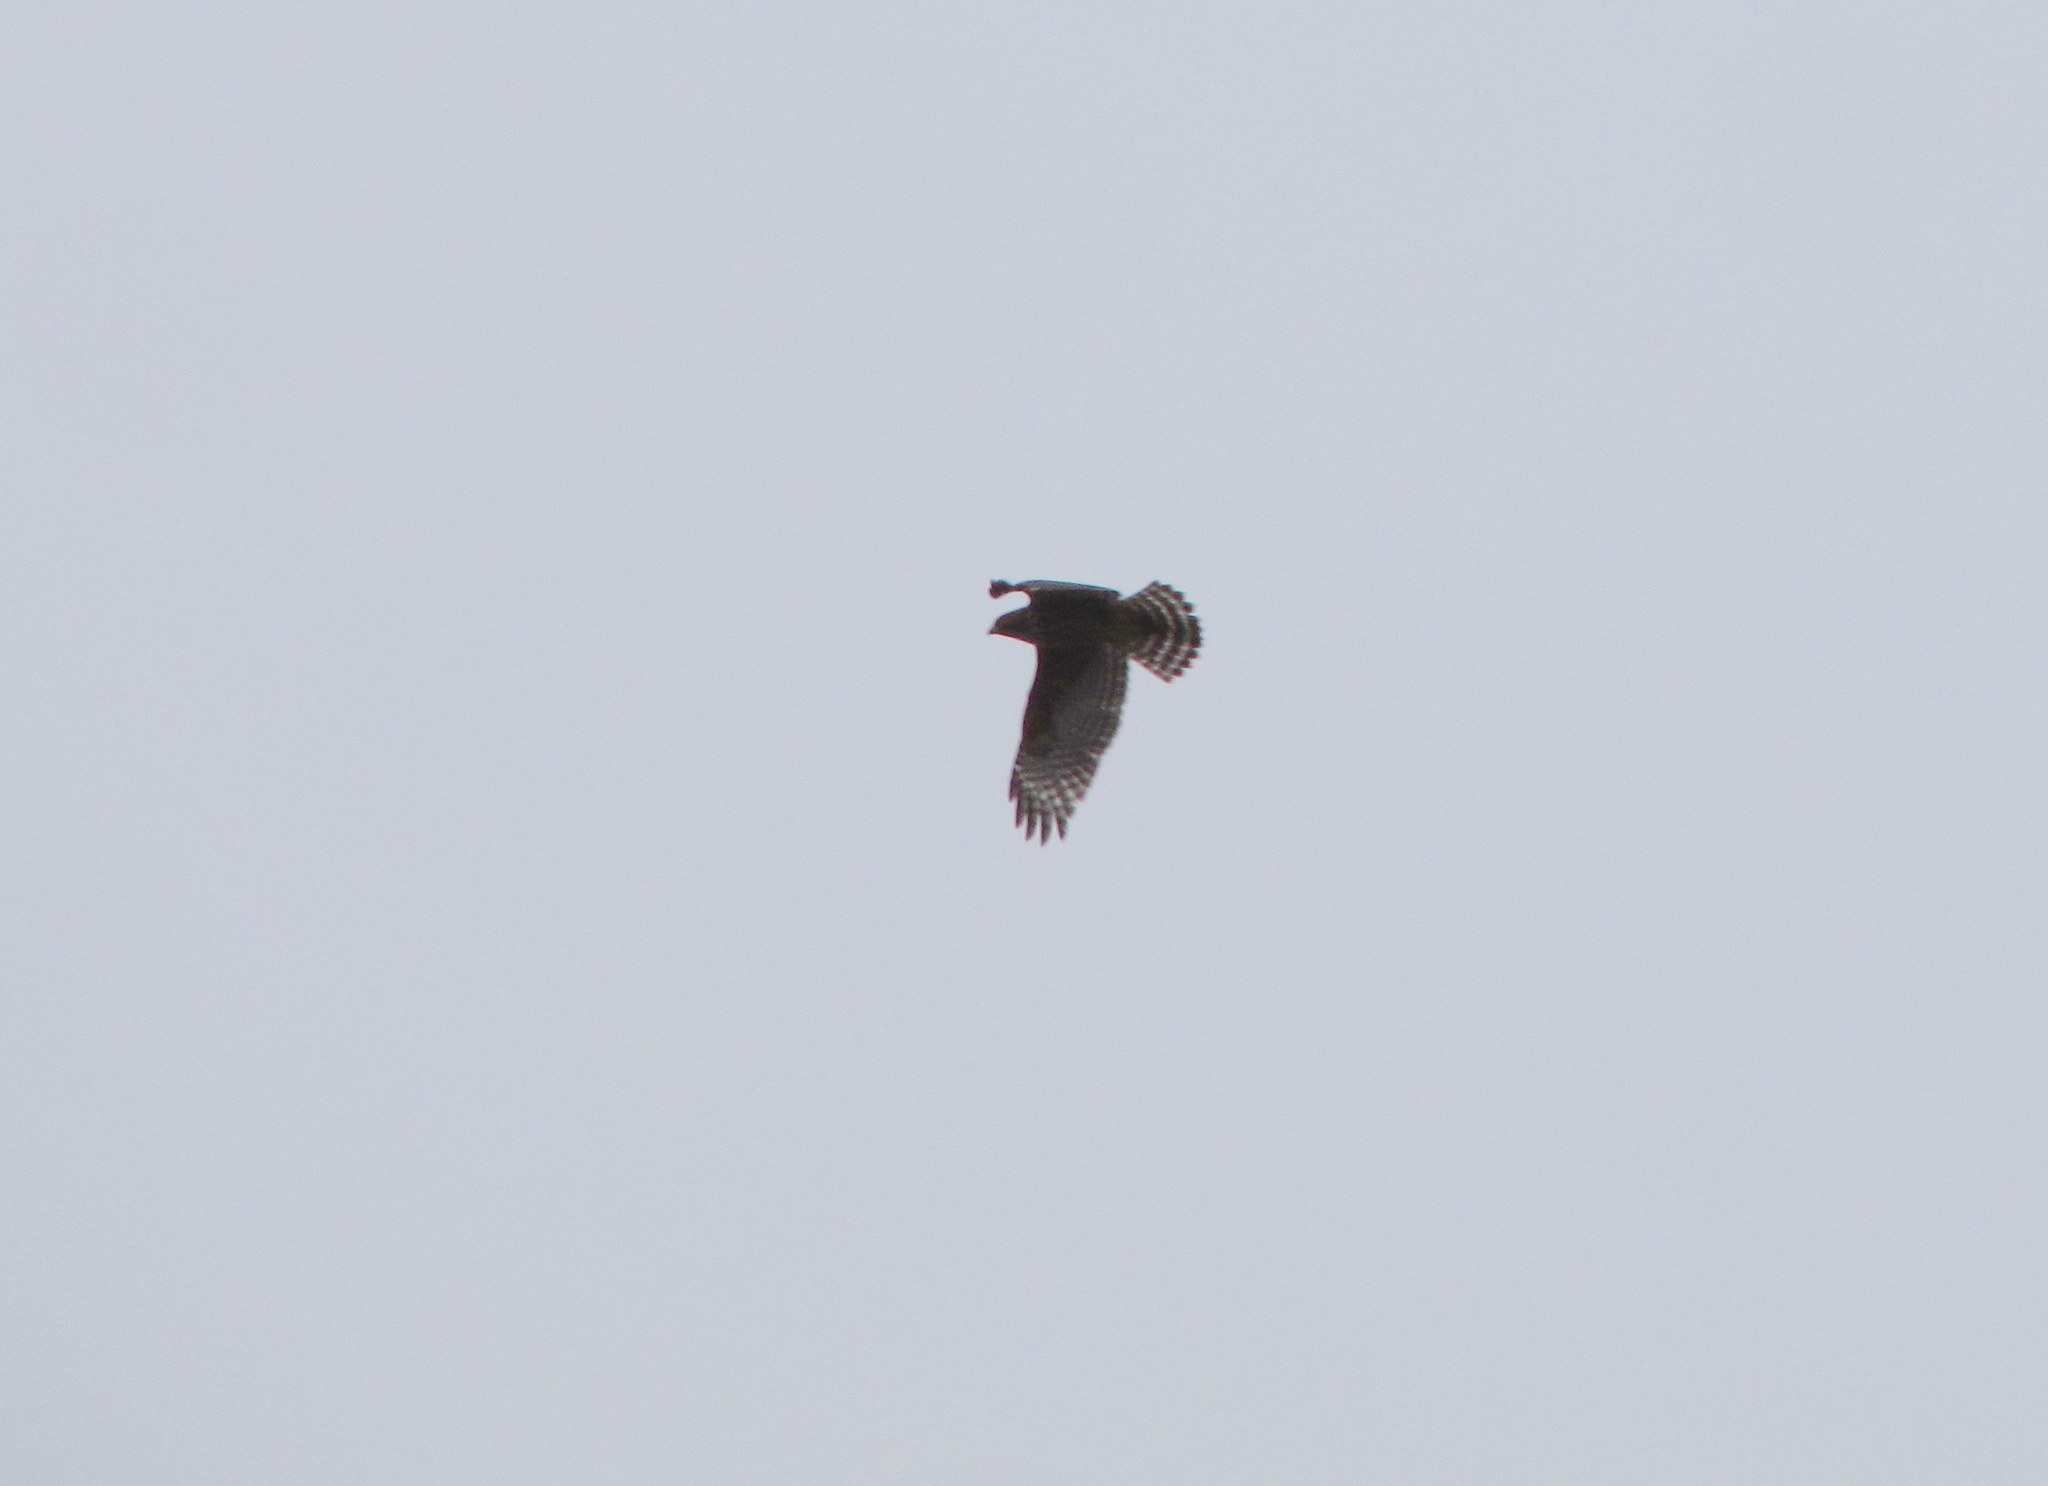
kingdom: Animalia
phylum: Chordata
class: Aves
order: Accipitriformes
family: Accipitridae
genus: Buteo
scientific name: Buteo lineatus
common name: Red-shouldered hawk
